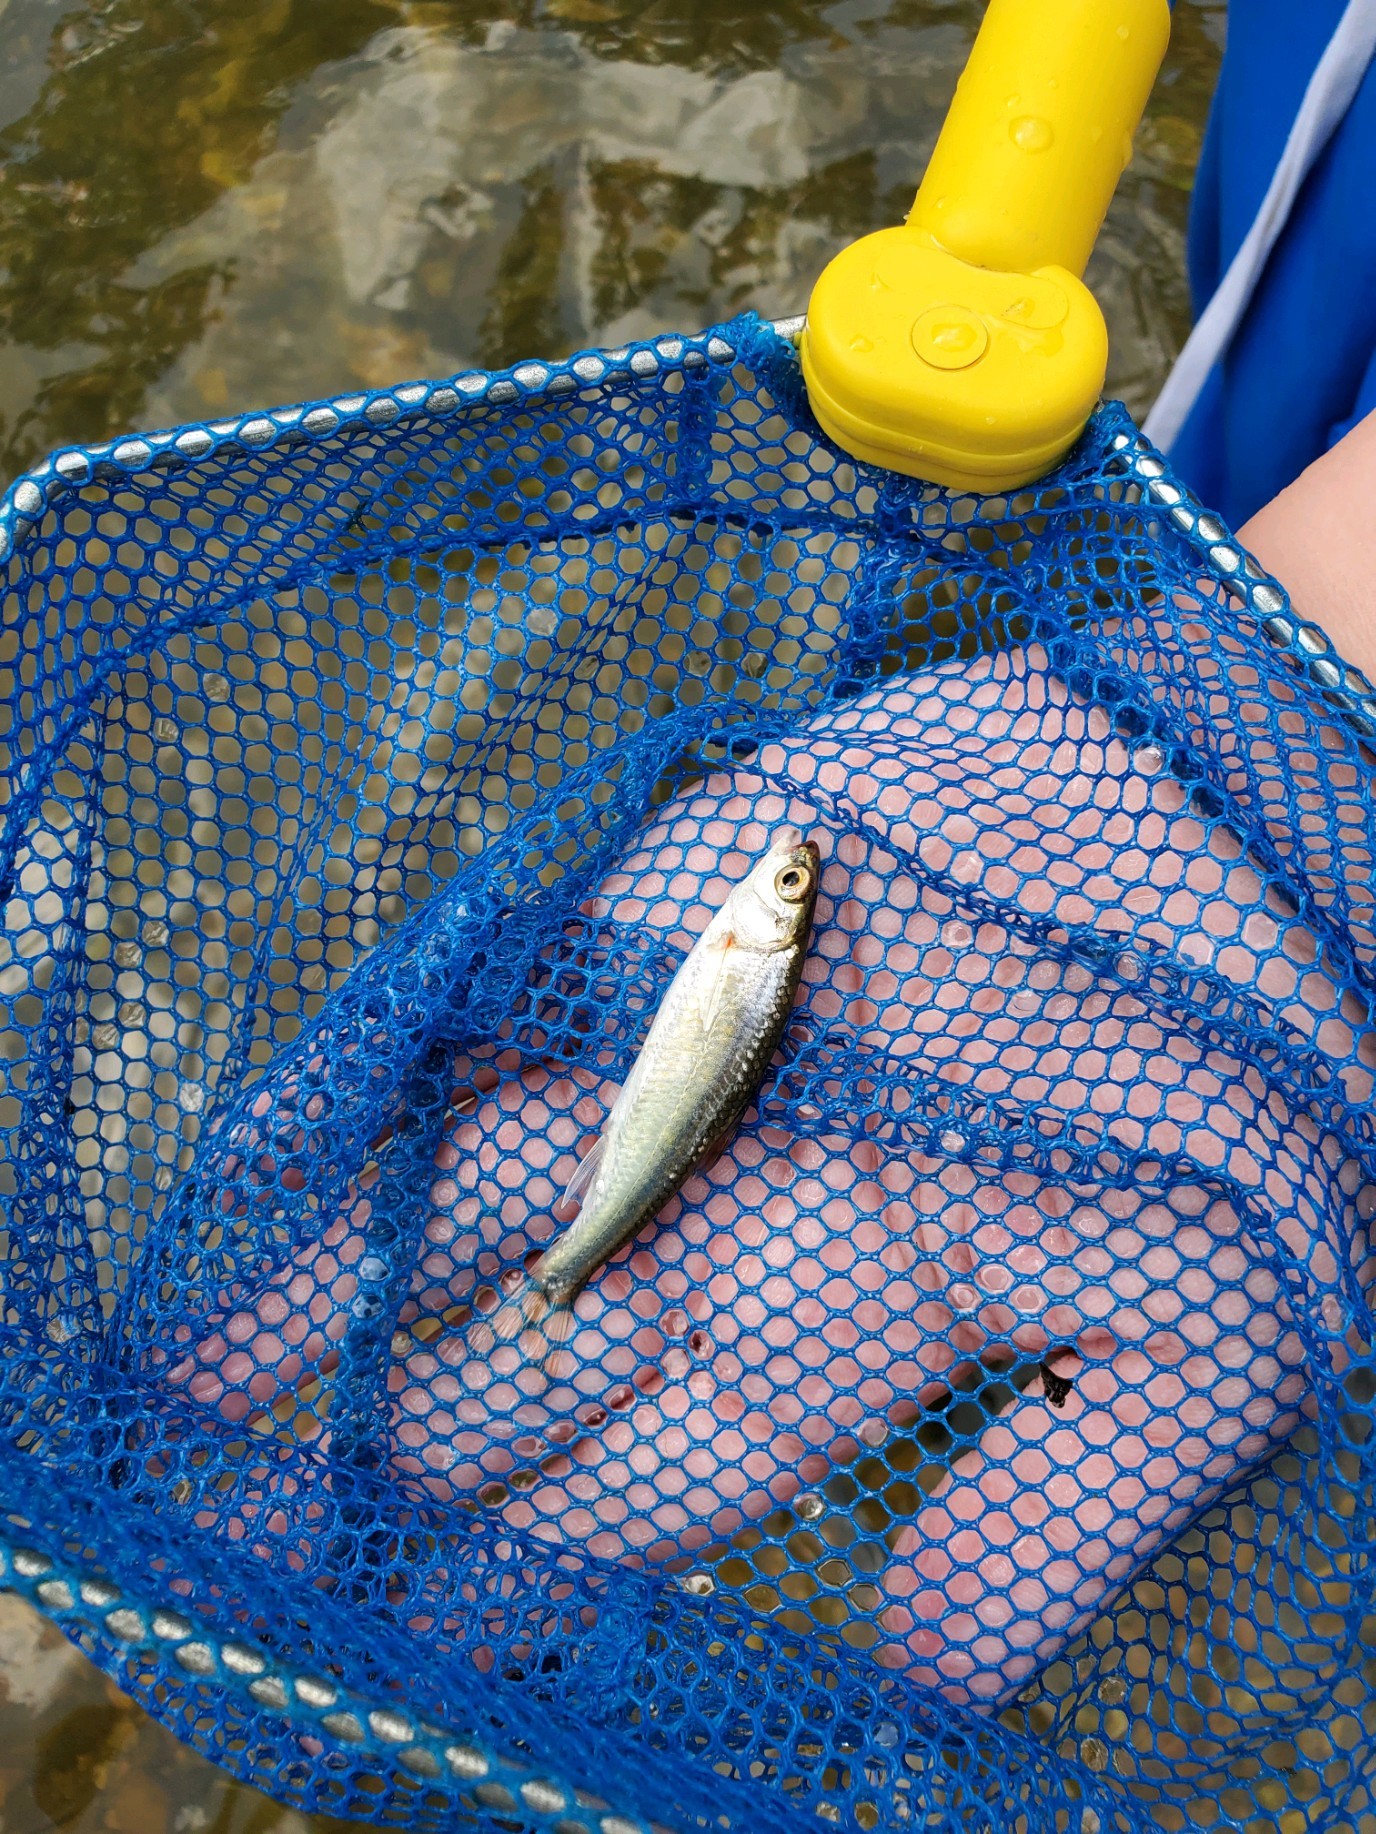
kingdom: Animalia
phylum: Chordata
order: Cypriniformes
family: Cyprinidae
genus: Luxilus
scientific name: Luxilus zonatus
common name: Bleeding shiner
